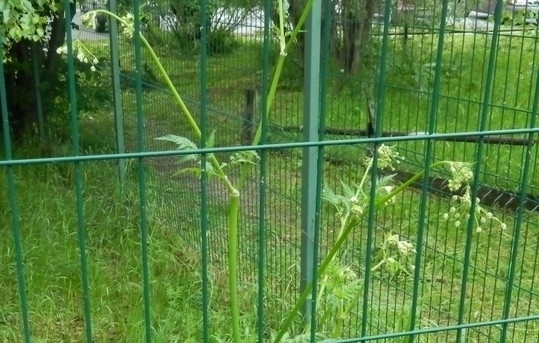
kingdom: Plantae
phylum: Tracheophyta
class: Magnoliopsida
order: Apiales
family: Apiaceae
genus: Anthriscus
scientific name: Anthriscus sylvestris
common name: Cow parsley
